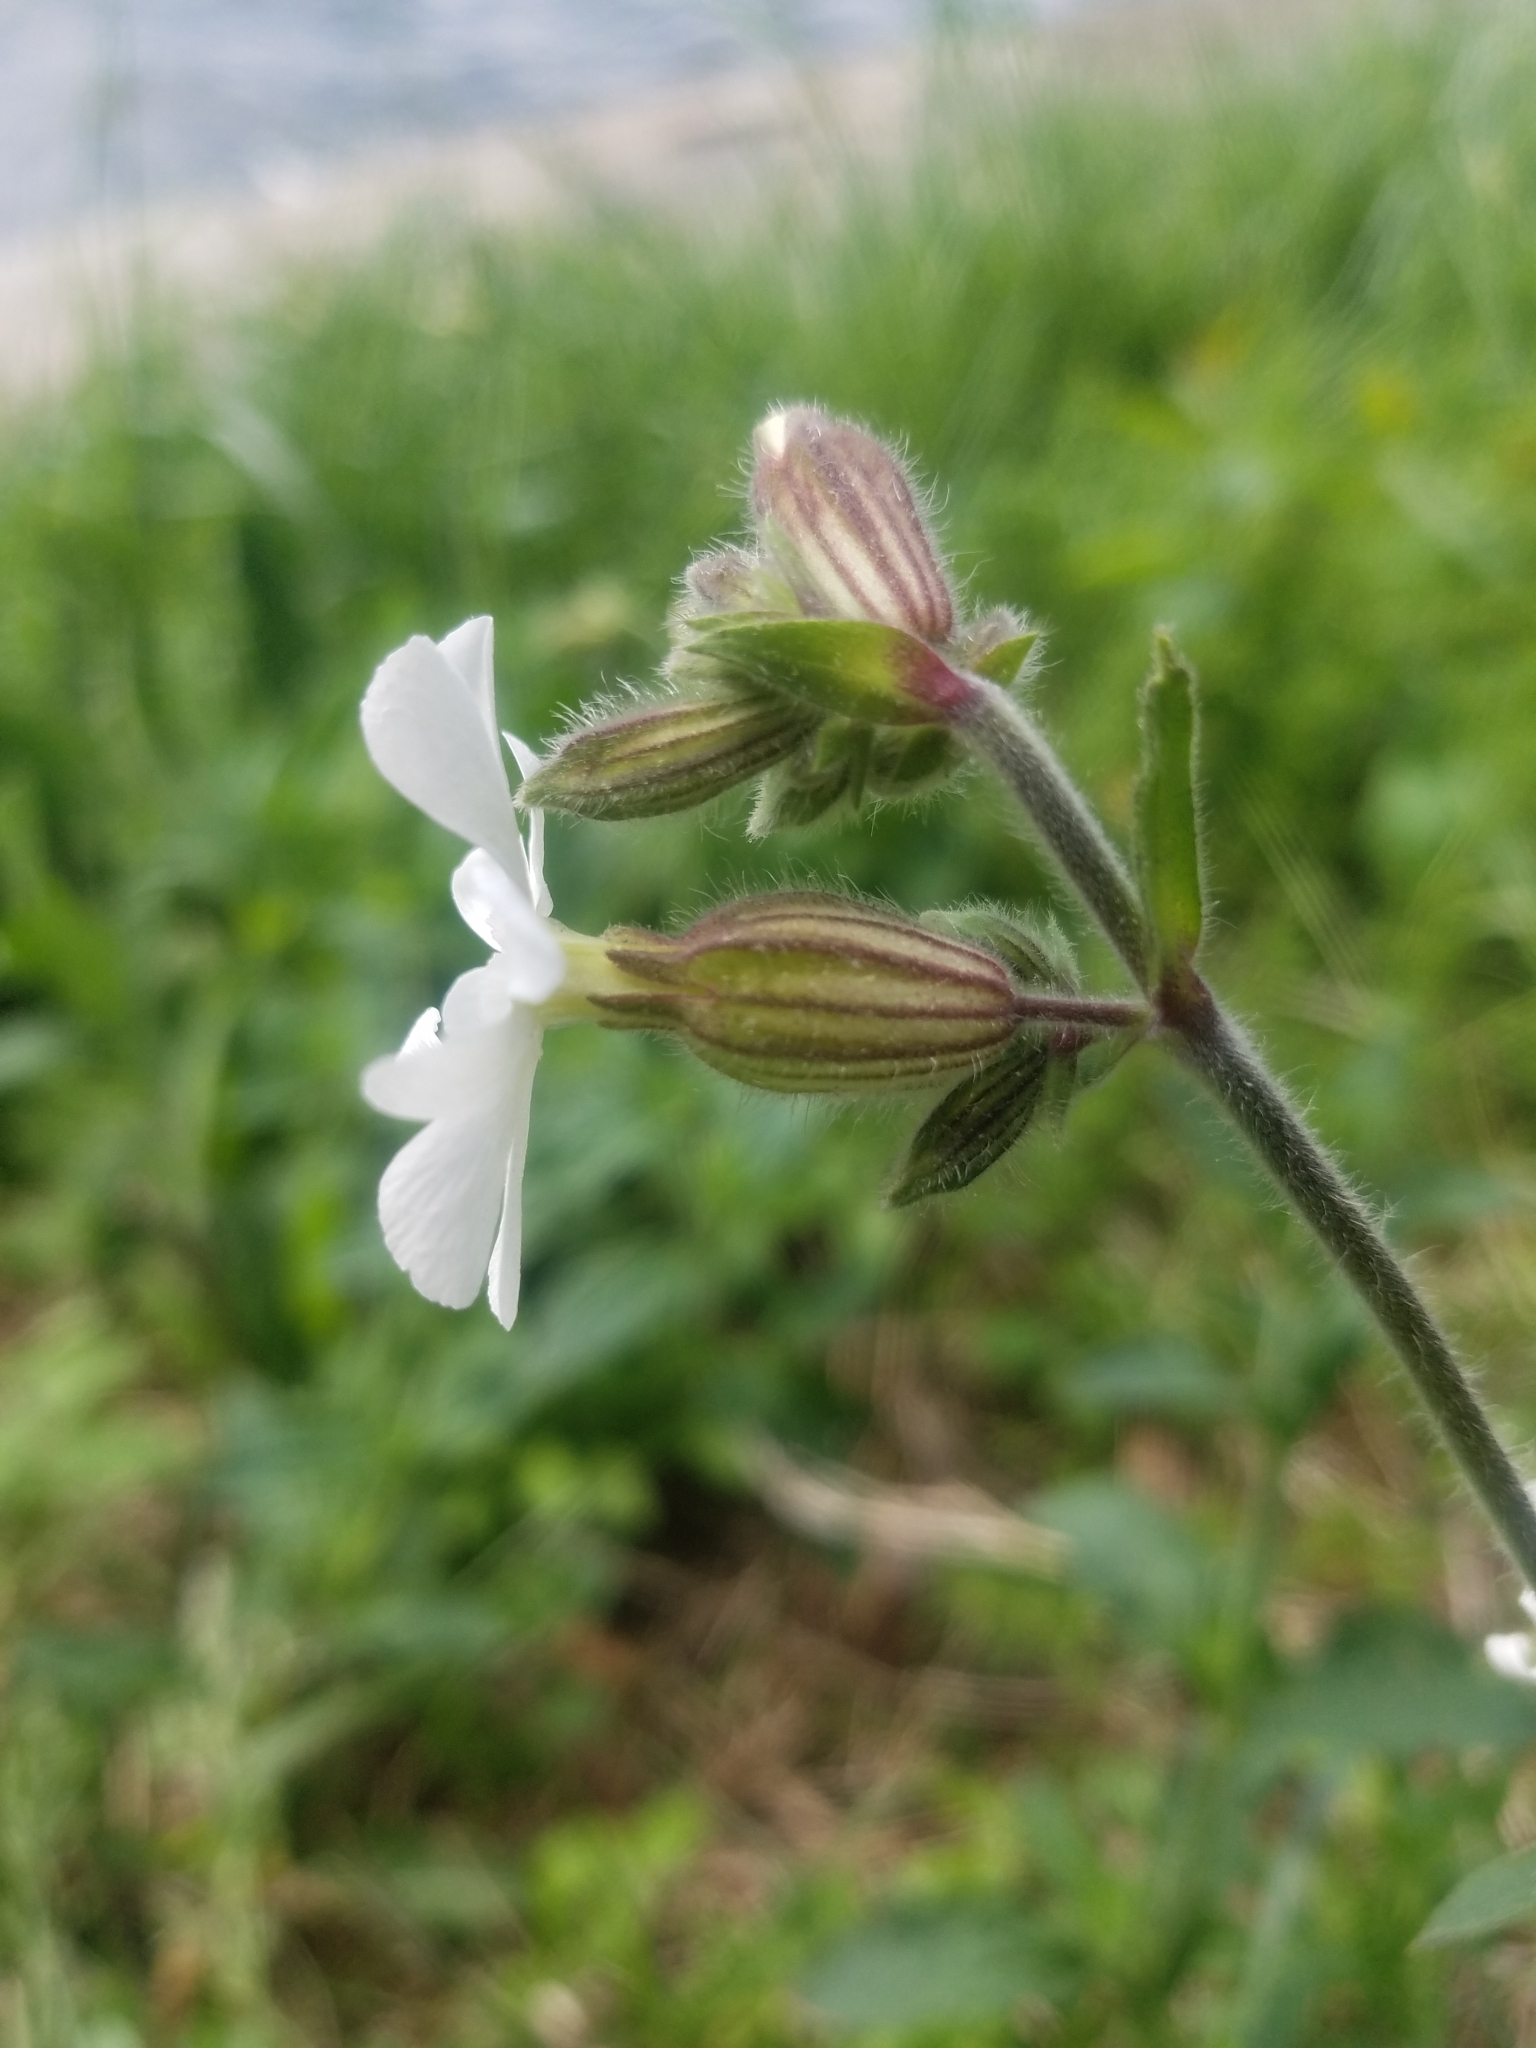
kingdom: Plantae
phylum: Tracheophyta
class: Magnoliopsida
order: Caryophyllales
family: Caryophyllaceae
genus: Silene
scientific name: Silene latifolia
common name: White campion
